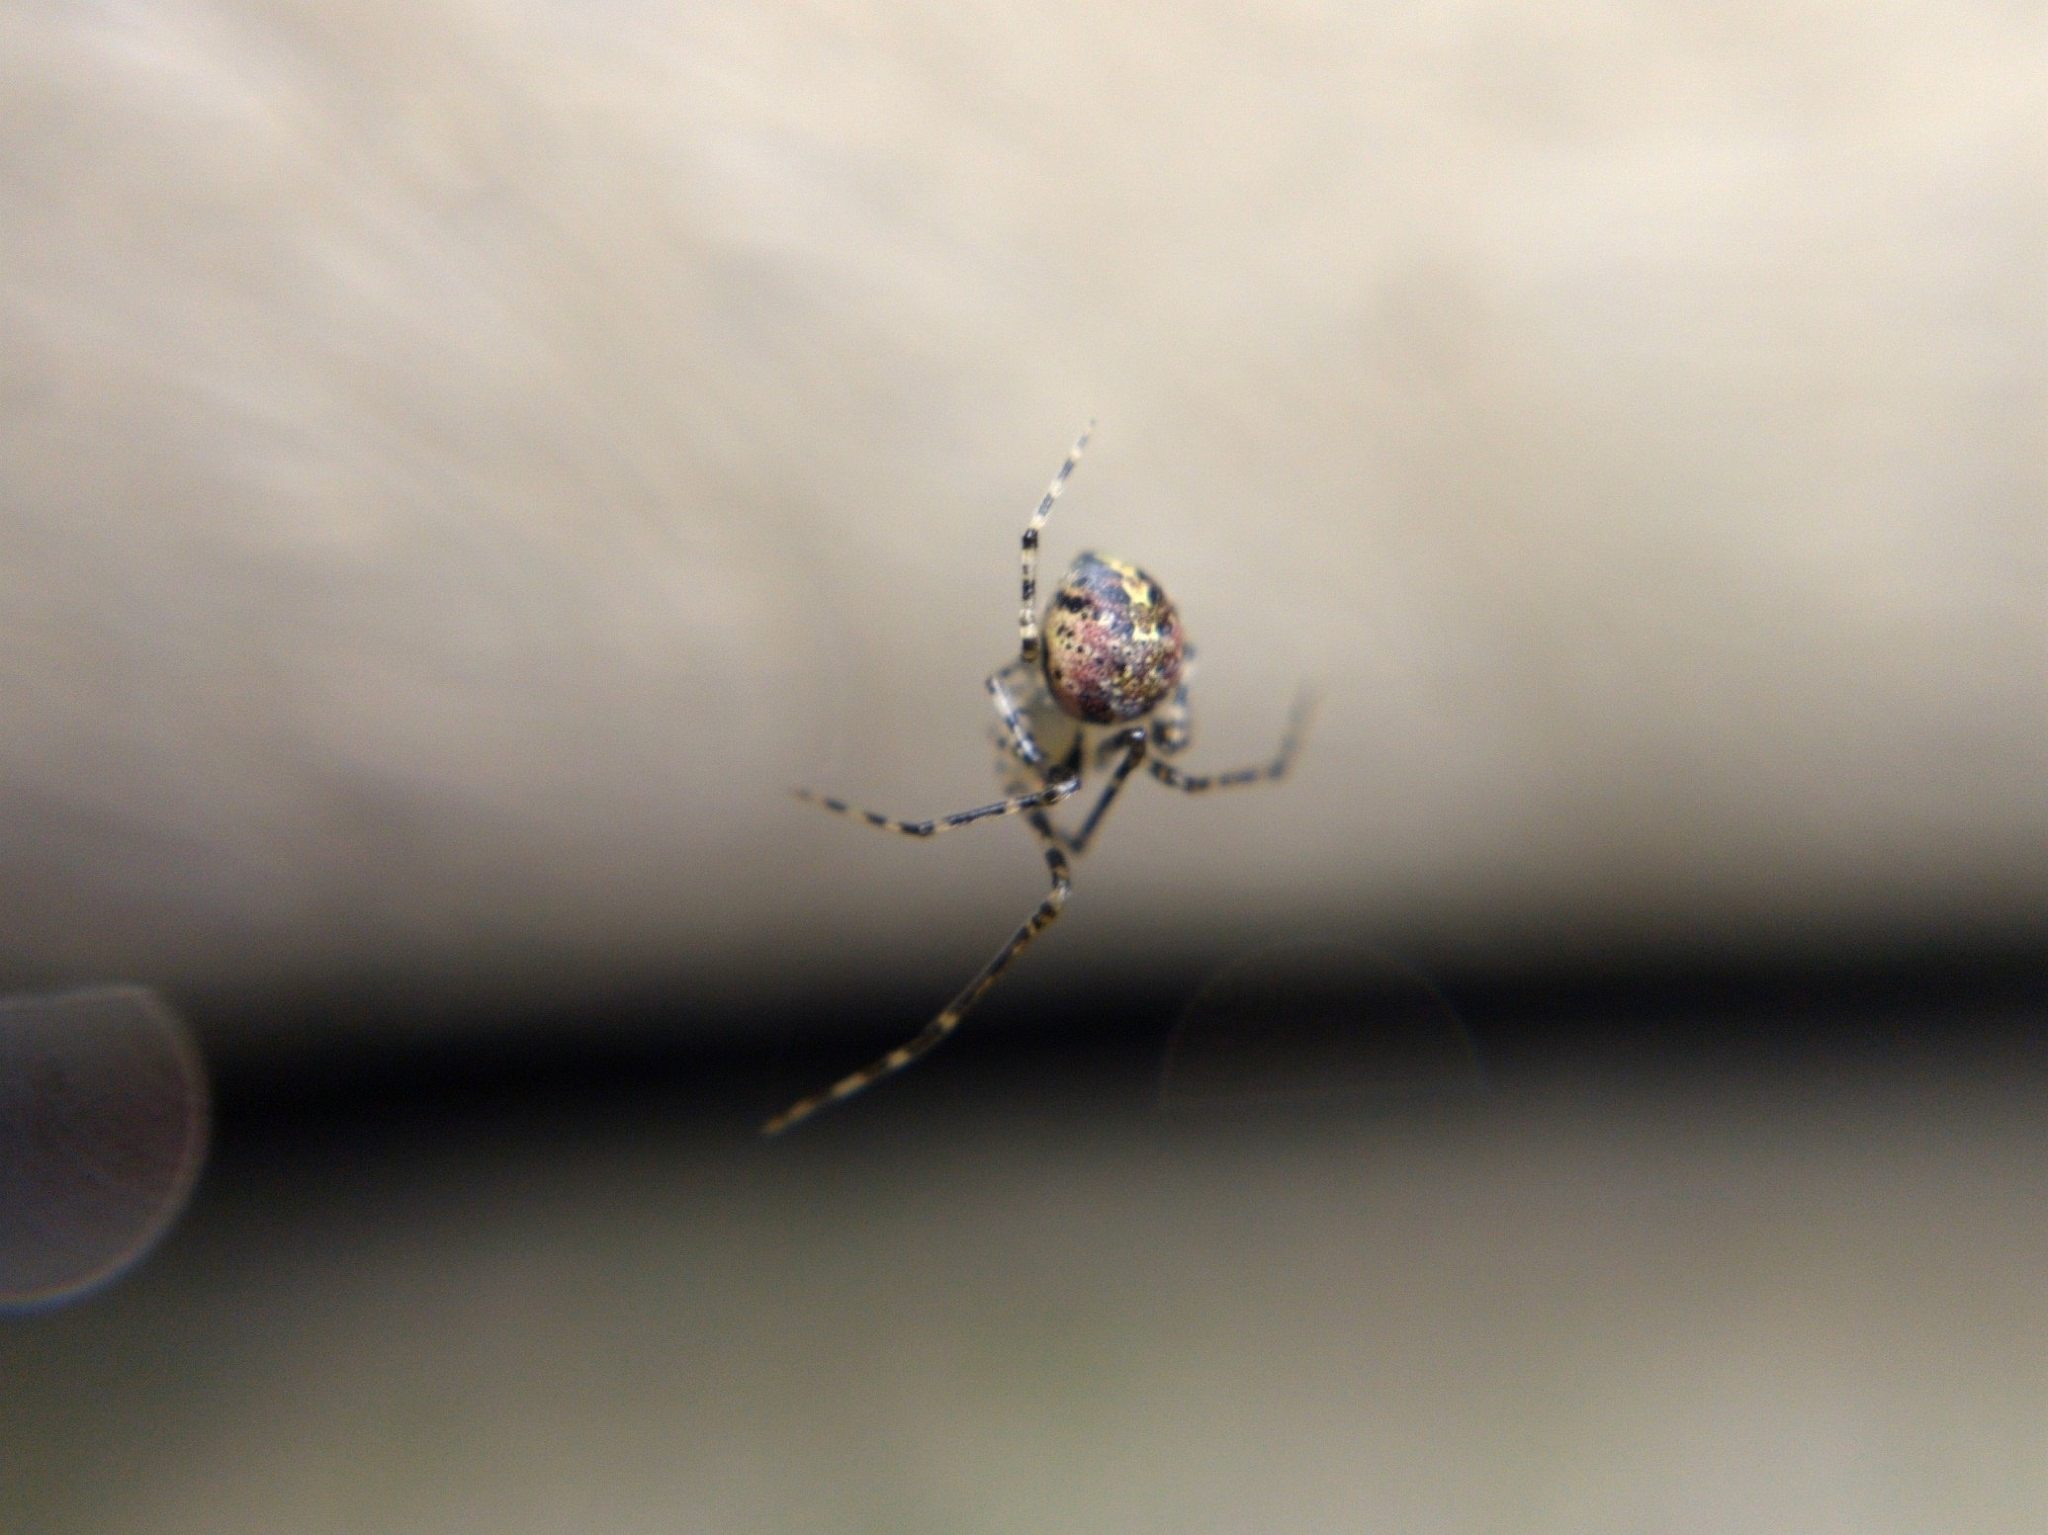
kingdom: Animalia
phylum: Arthropoda
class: Arachnida
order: Araneae
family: Theridiidae
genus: Platnickina
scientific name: Platnickina tincta
